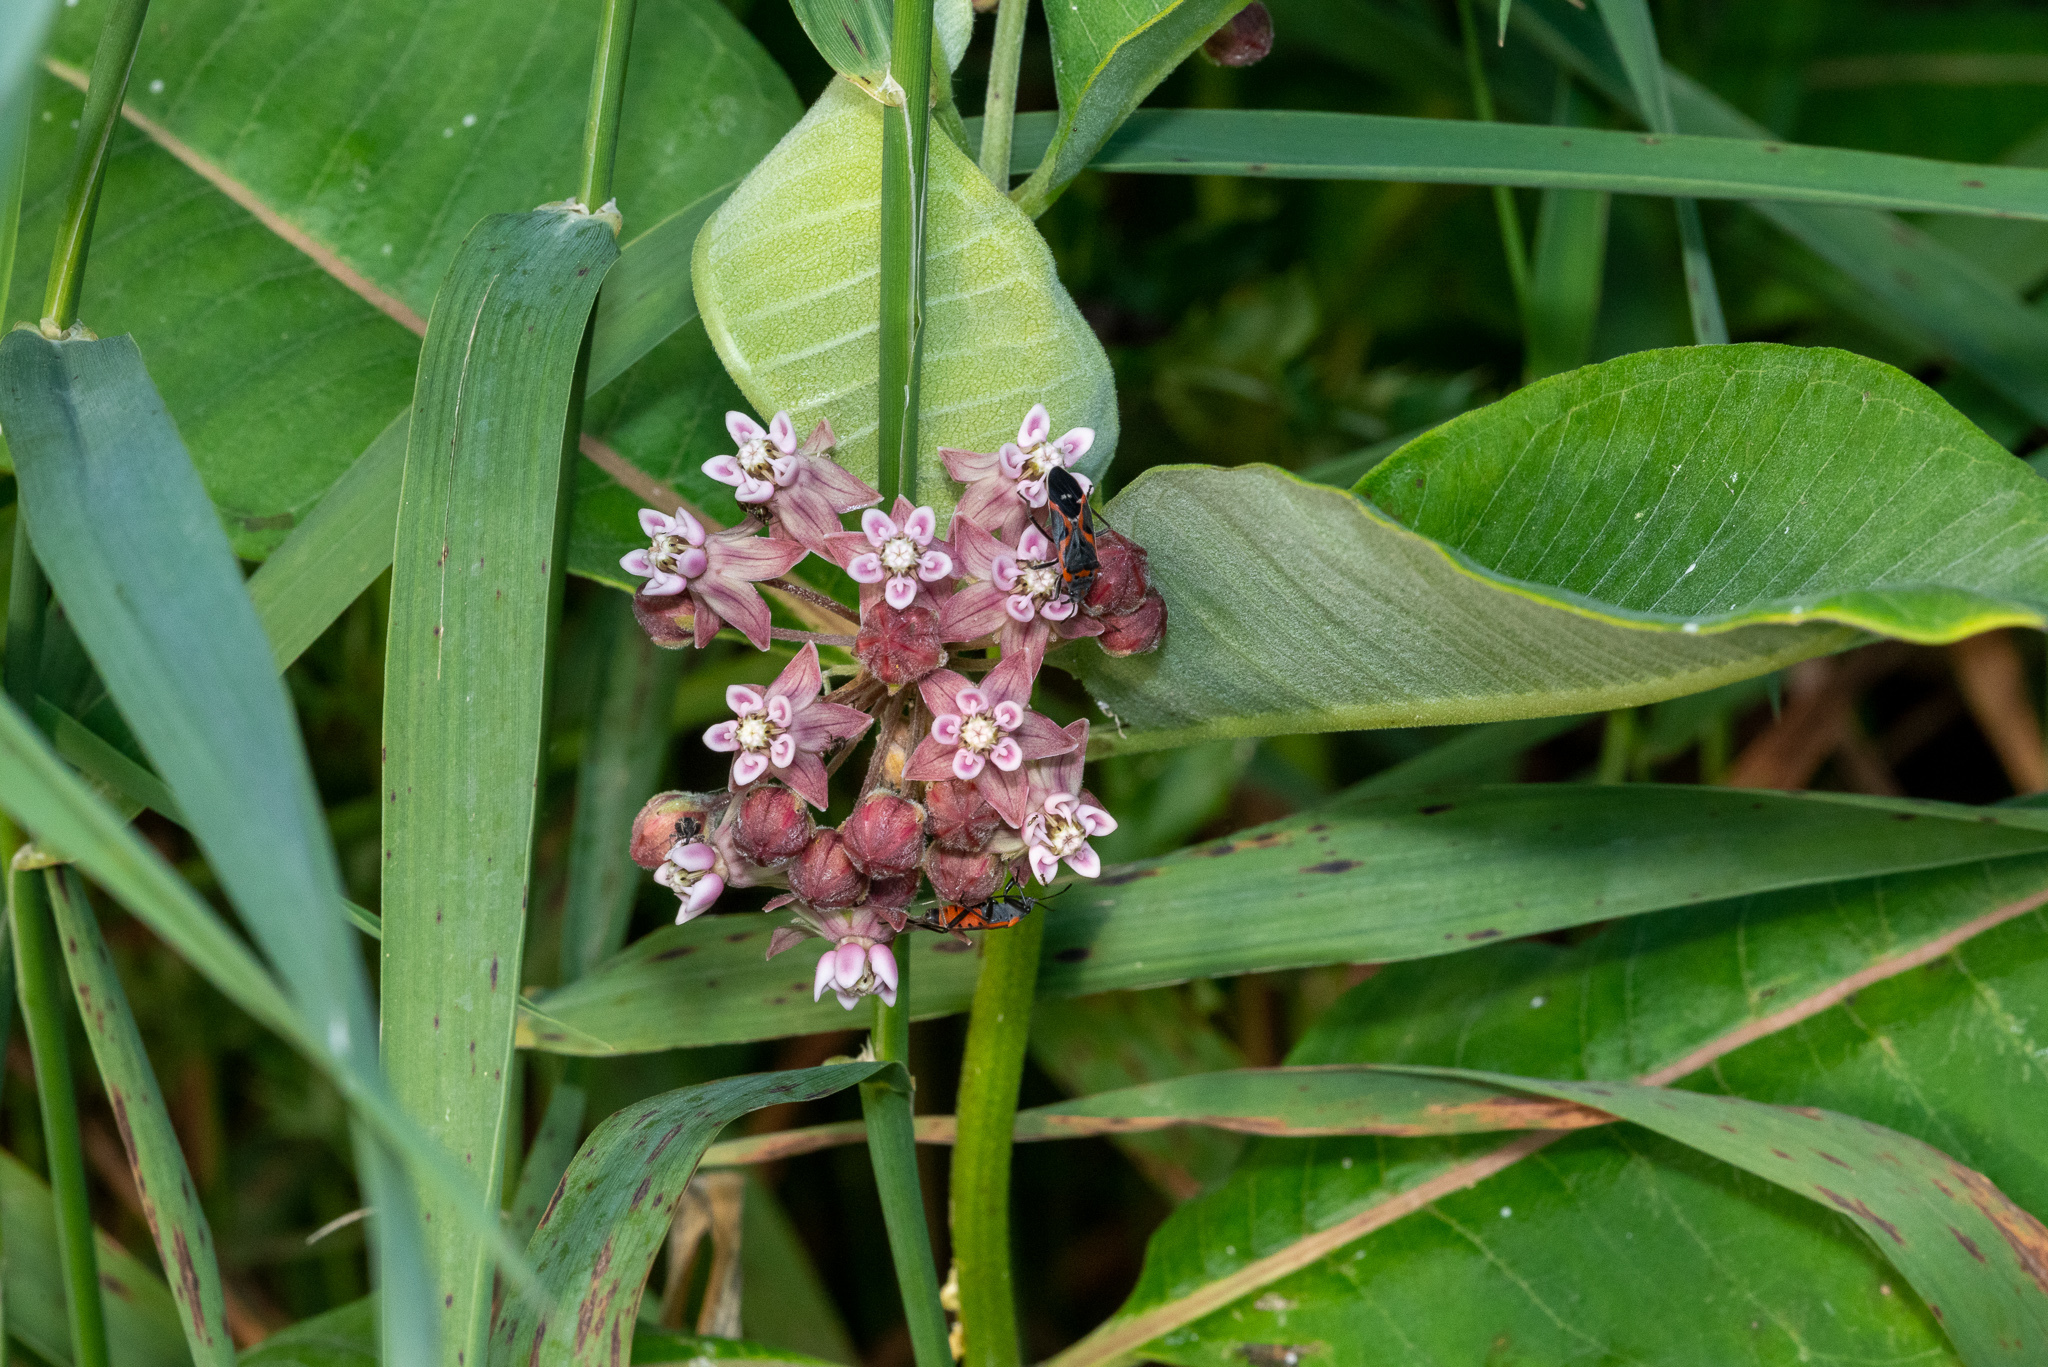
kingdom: Plantae
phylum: Tracheophyta
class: Magnoliopsida
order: Gentianales
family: Apocynaceae
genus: Asclepias
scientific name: Asclepias syriaca
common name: Common milkweed
